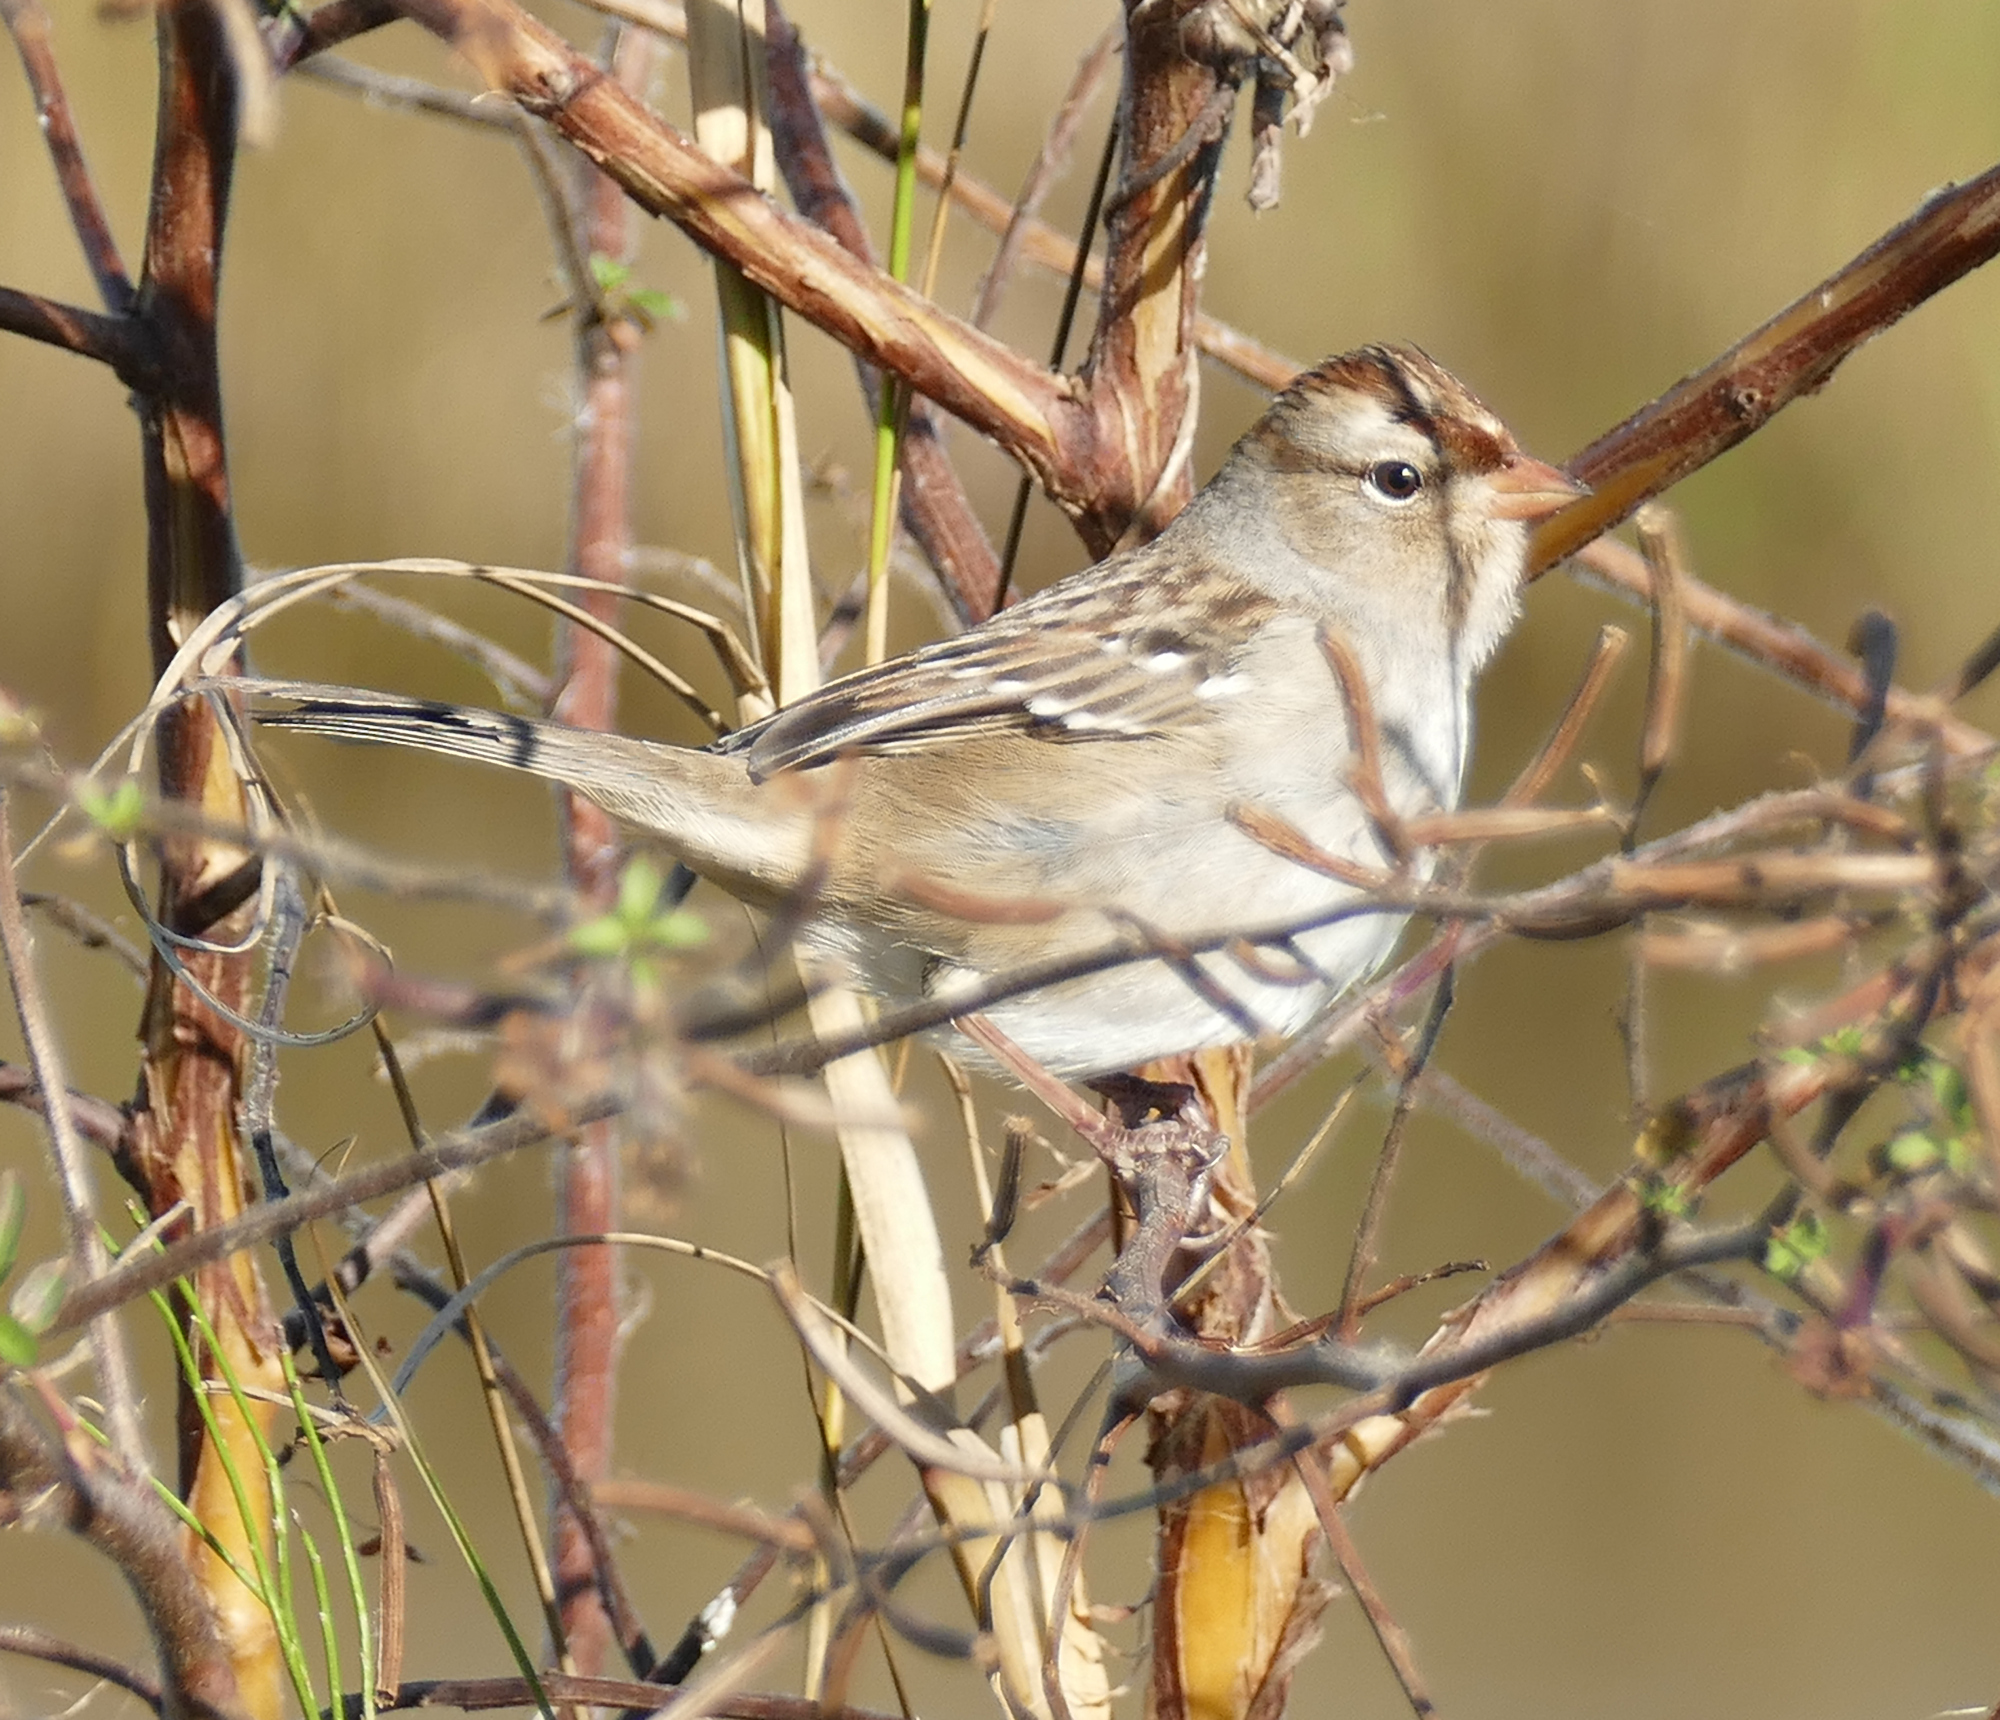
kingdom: Animalia
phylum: Chordata
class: Aves
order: Passeriformes
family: Passerellidae
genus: Zonotrichia
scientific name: Zonotrichia leucophrys
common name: White-crowned sparrow
